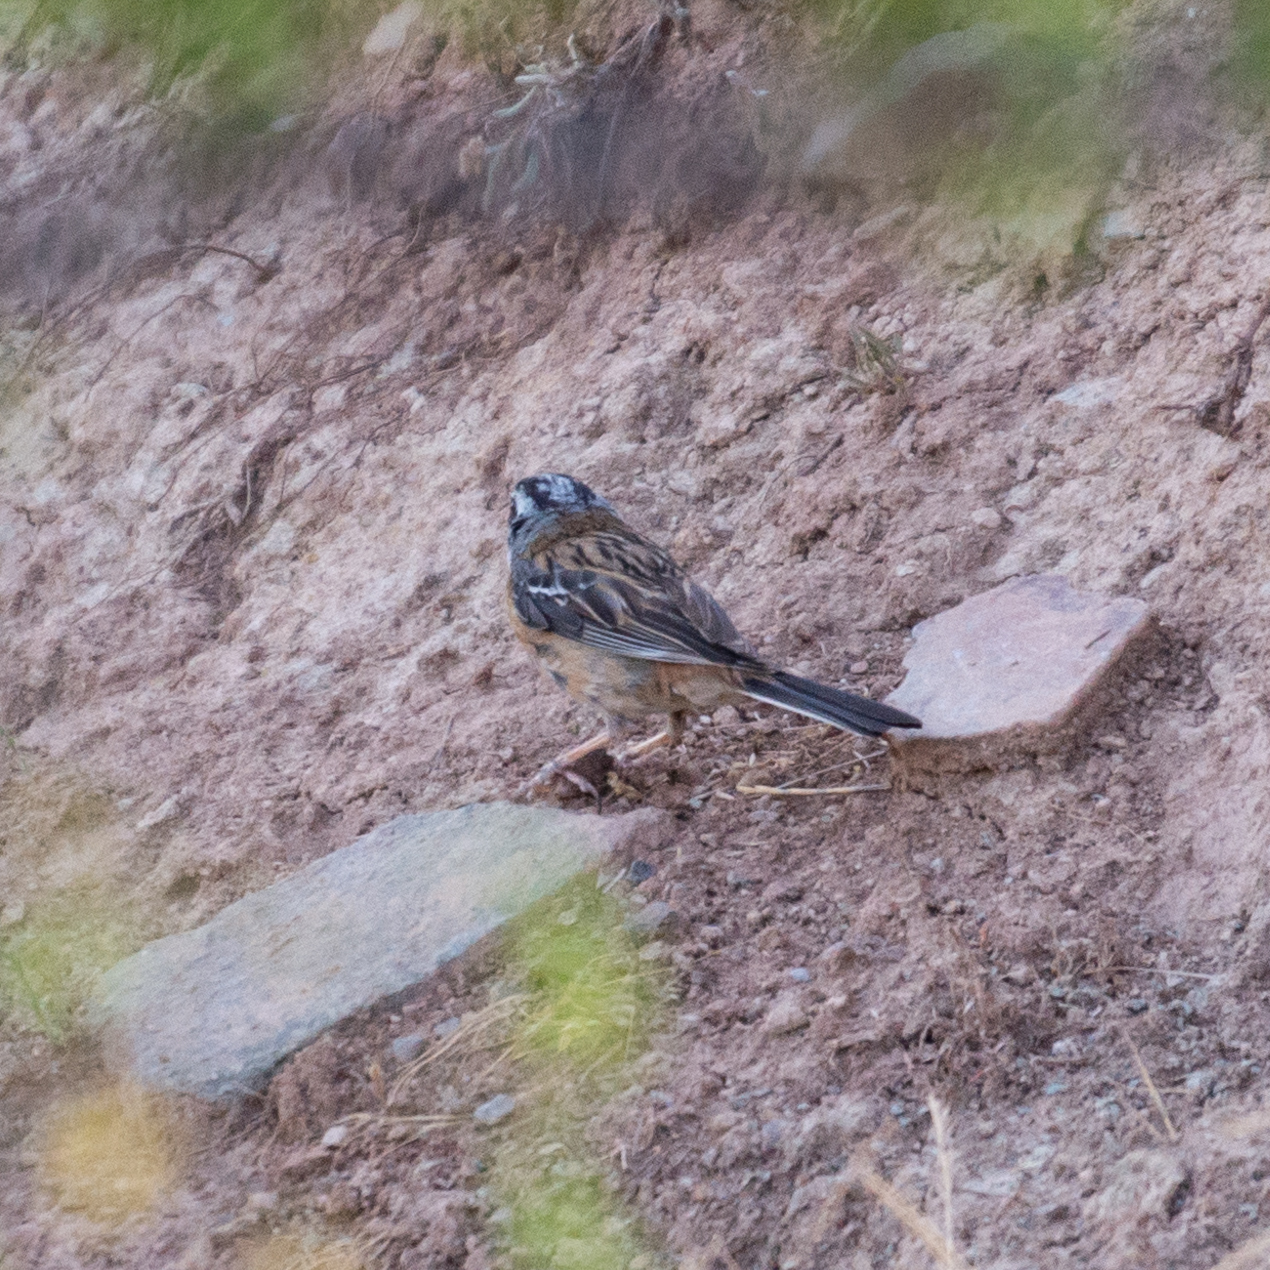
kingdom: Animalia
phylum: Chordata
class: Aves
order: Passeriformes
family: Emberizidae
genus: Emberiza
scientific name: Emberiza cia
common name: Rock bunting
